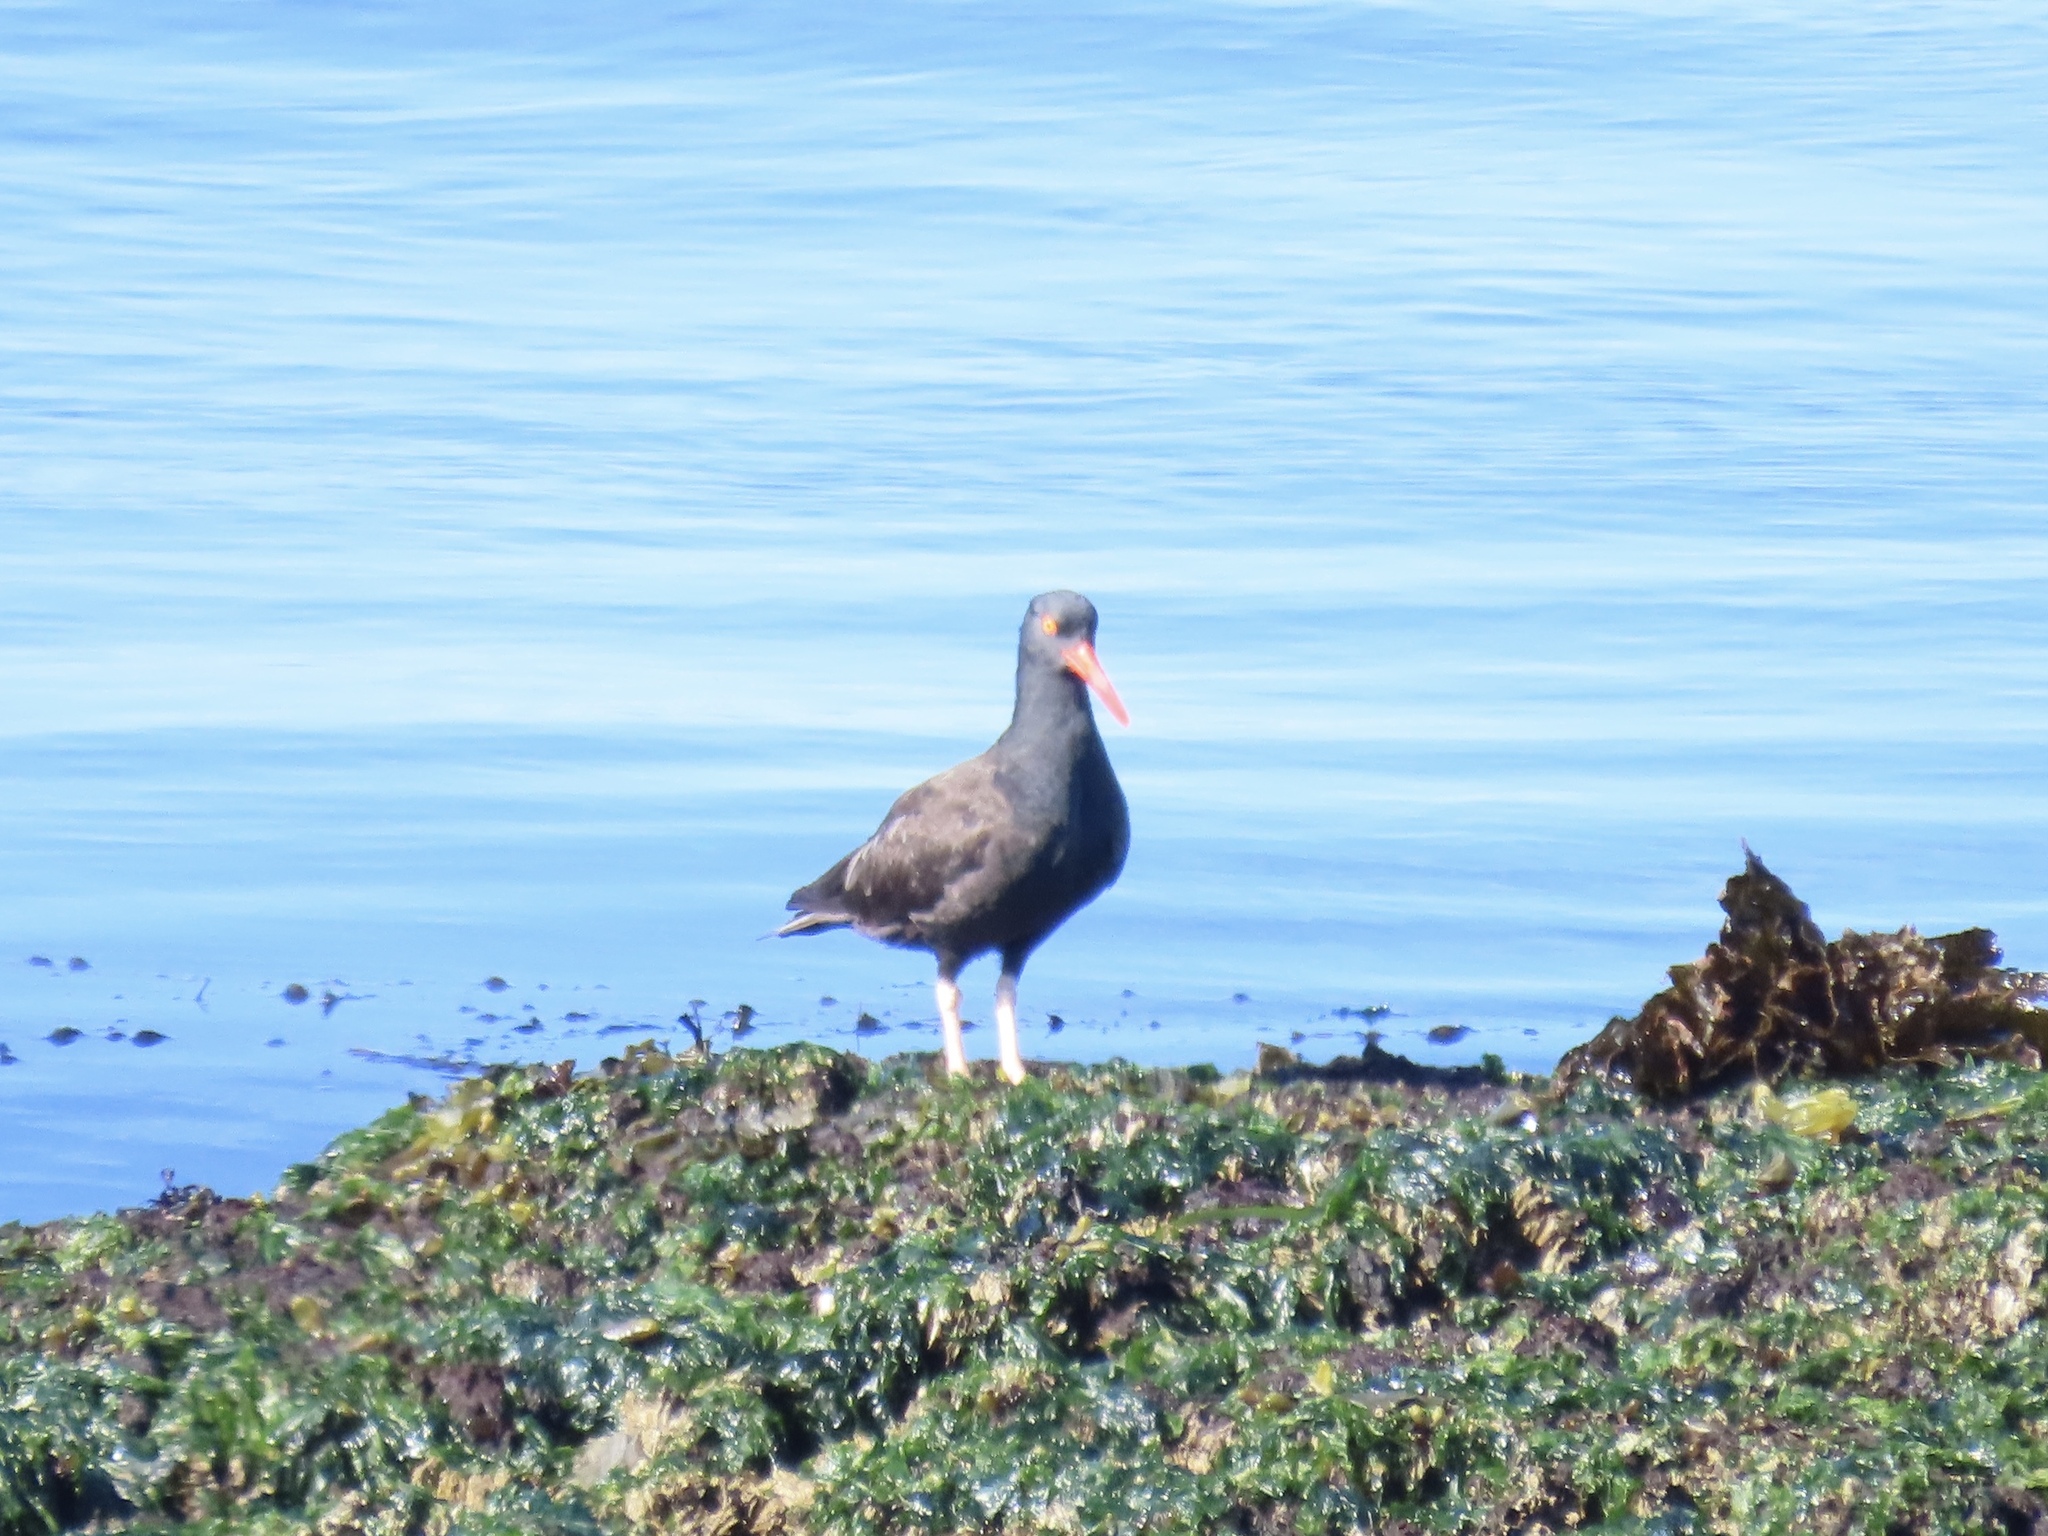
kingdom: Animalia
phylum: Chordata
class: Aves
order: Charadriiformes
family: Haematopodidae
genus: Haematopus
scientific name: Haematopus bachmani
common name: Black oystercatcher
